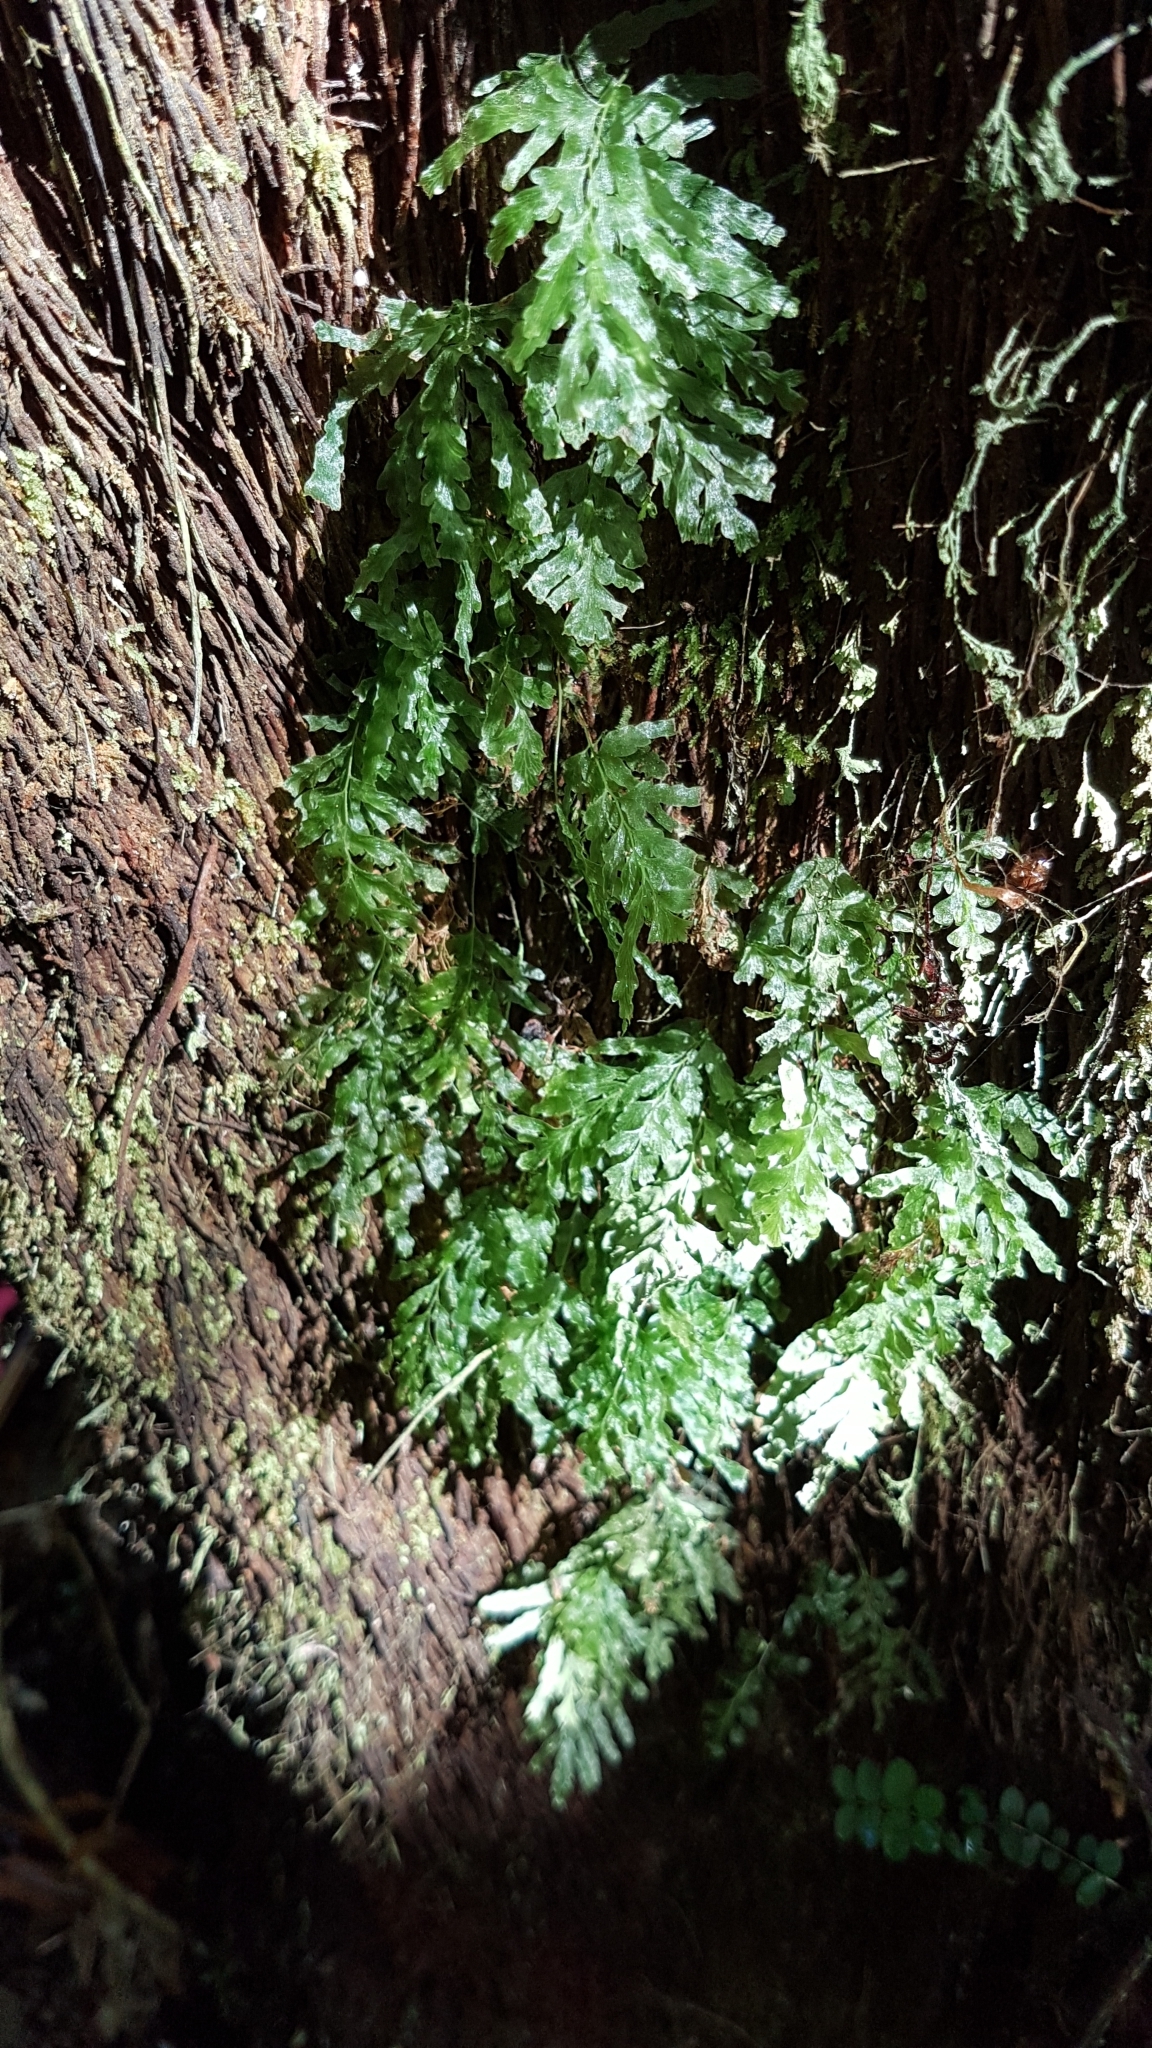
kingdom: Plantae
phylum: Tracheophyta
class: Polypodiopsida
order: Hymenophyllales
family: Hymenophyllaceae
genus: Polyphlebium
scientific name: Polyphlebium venosum
